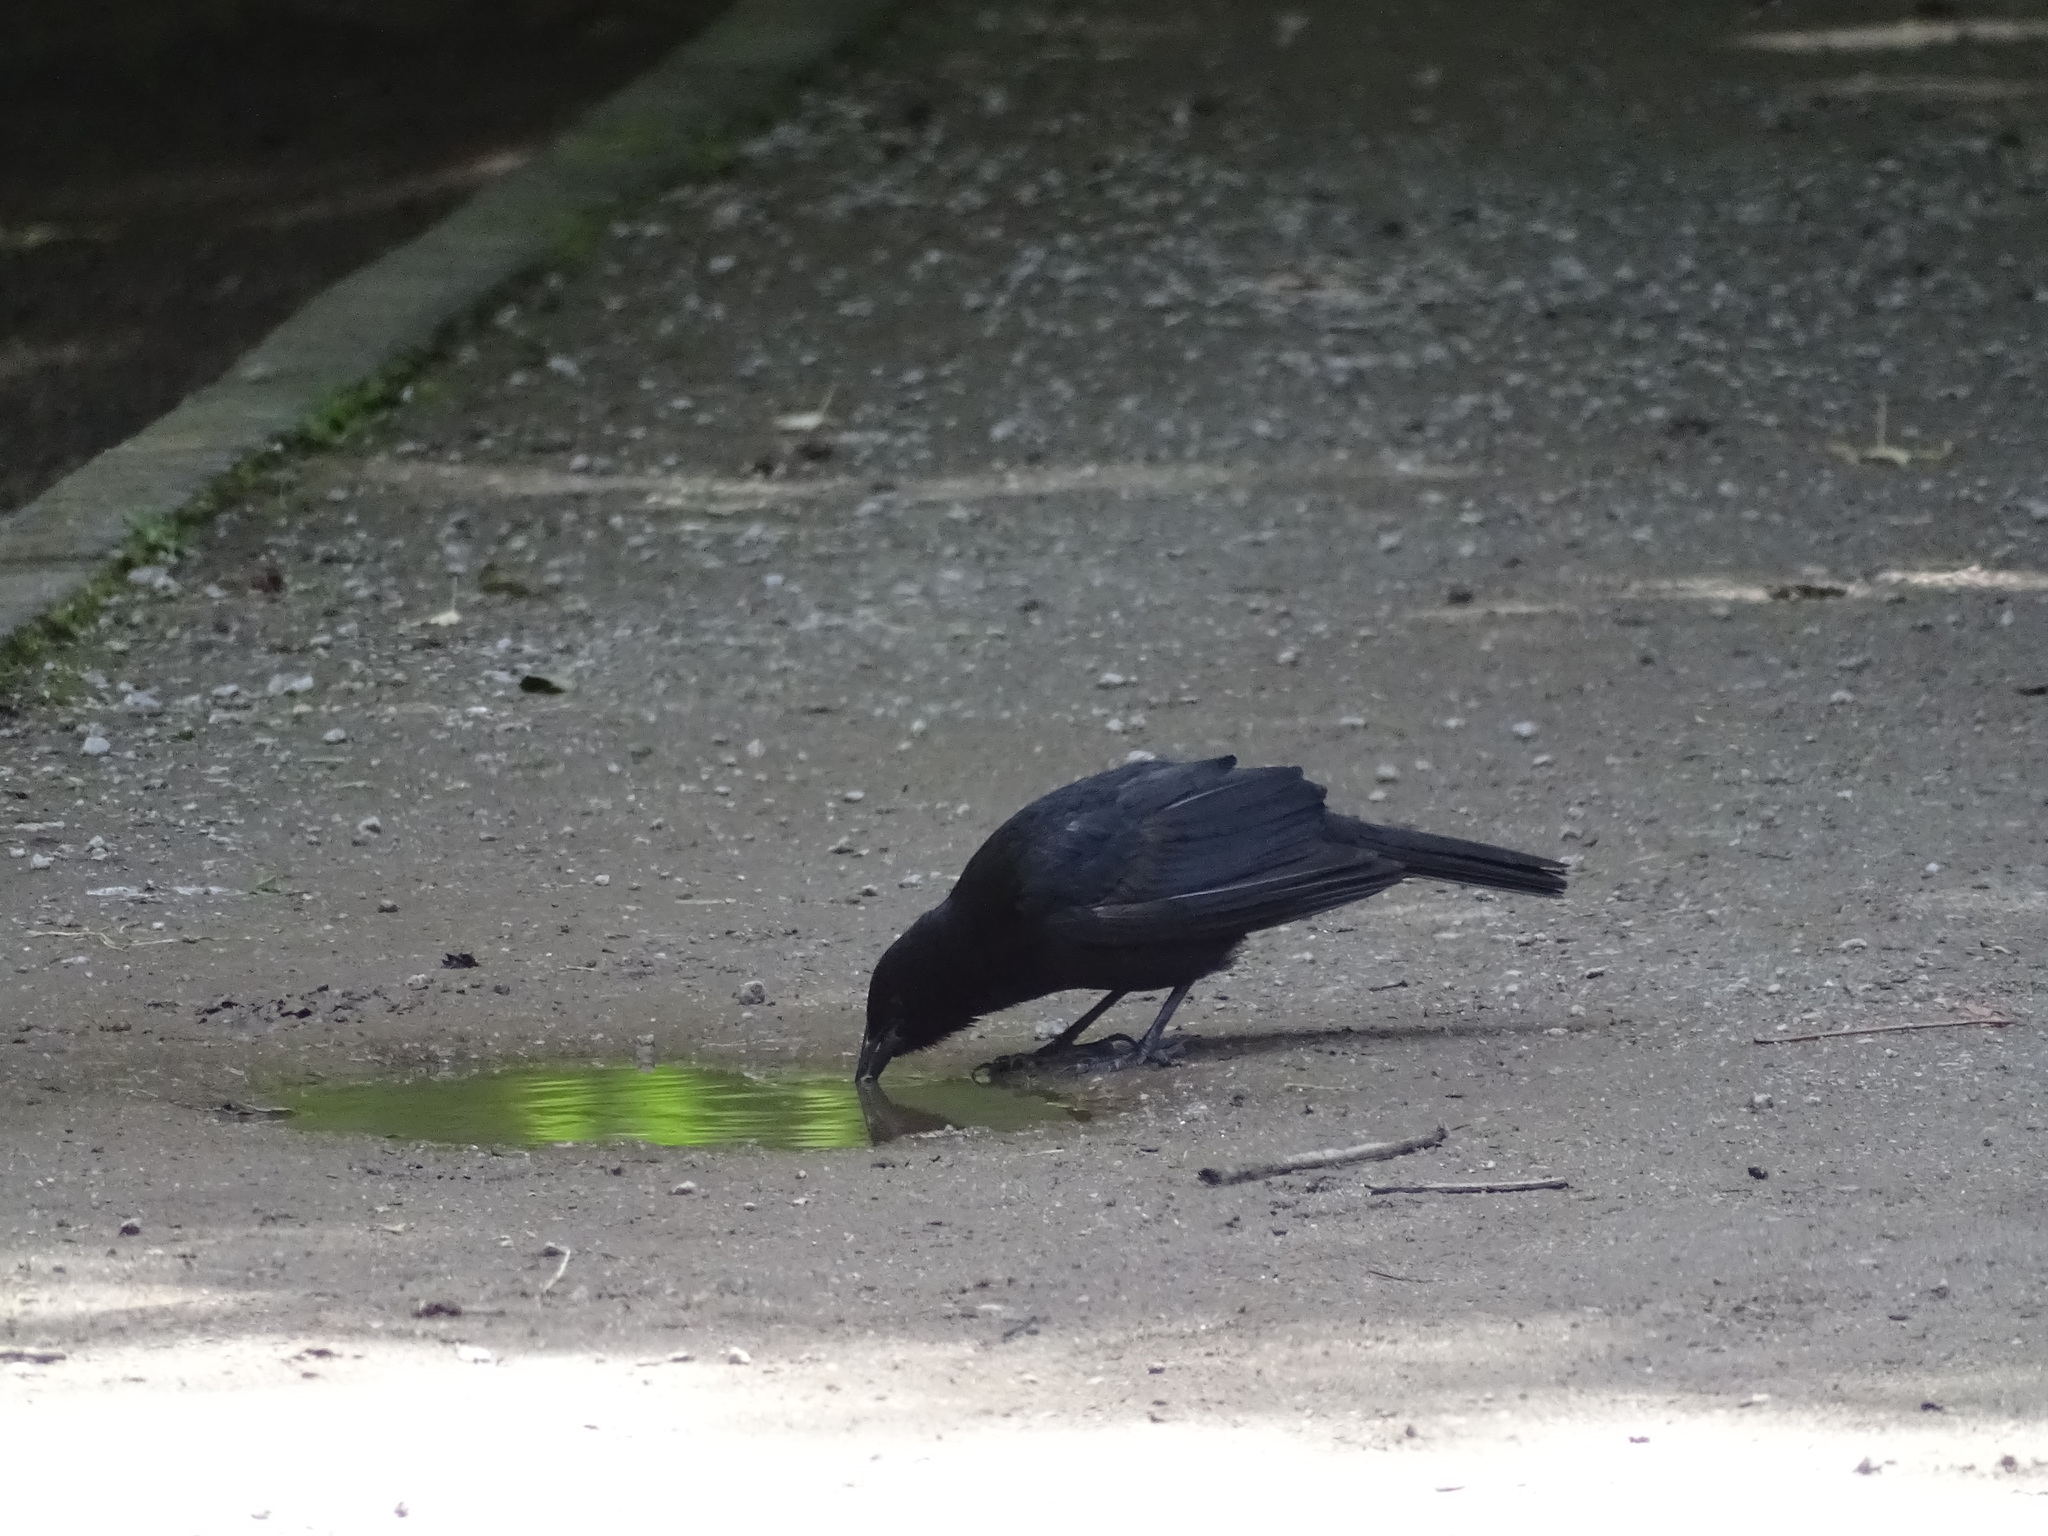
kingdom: Animalia
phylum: Chordata
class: Aves
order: Passeriformes
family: Icteridae
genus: Curaeus
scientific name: Curaeus curaeus
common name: Austral blackbird
